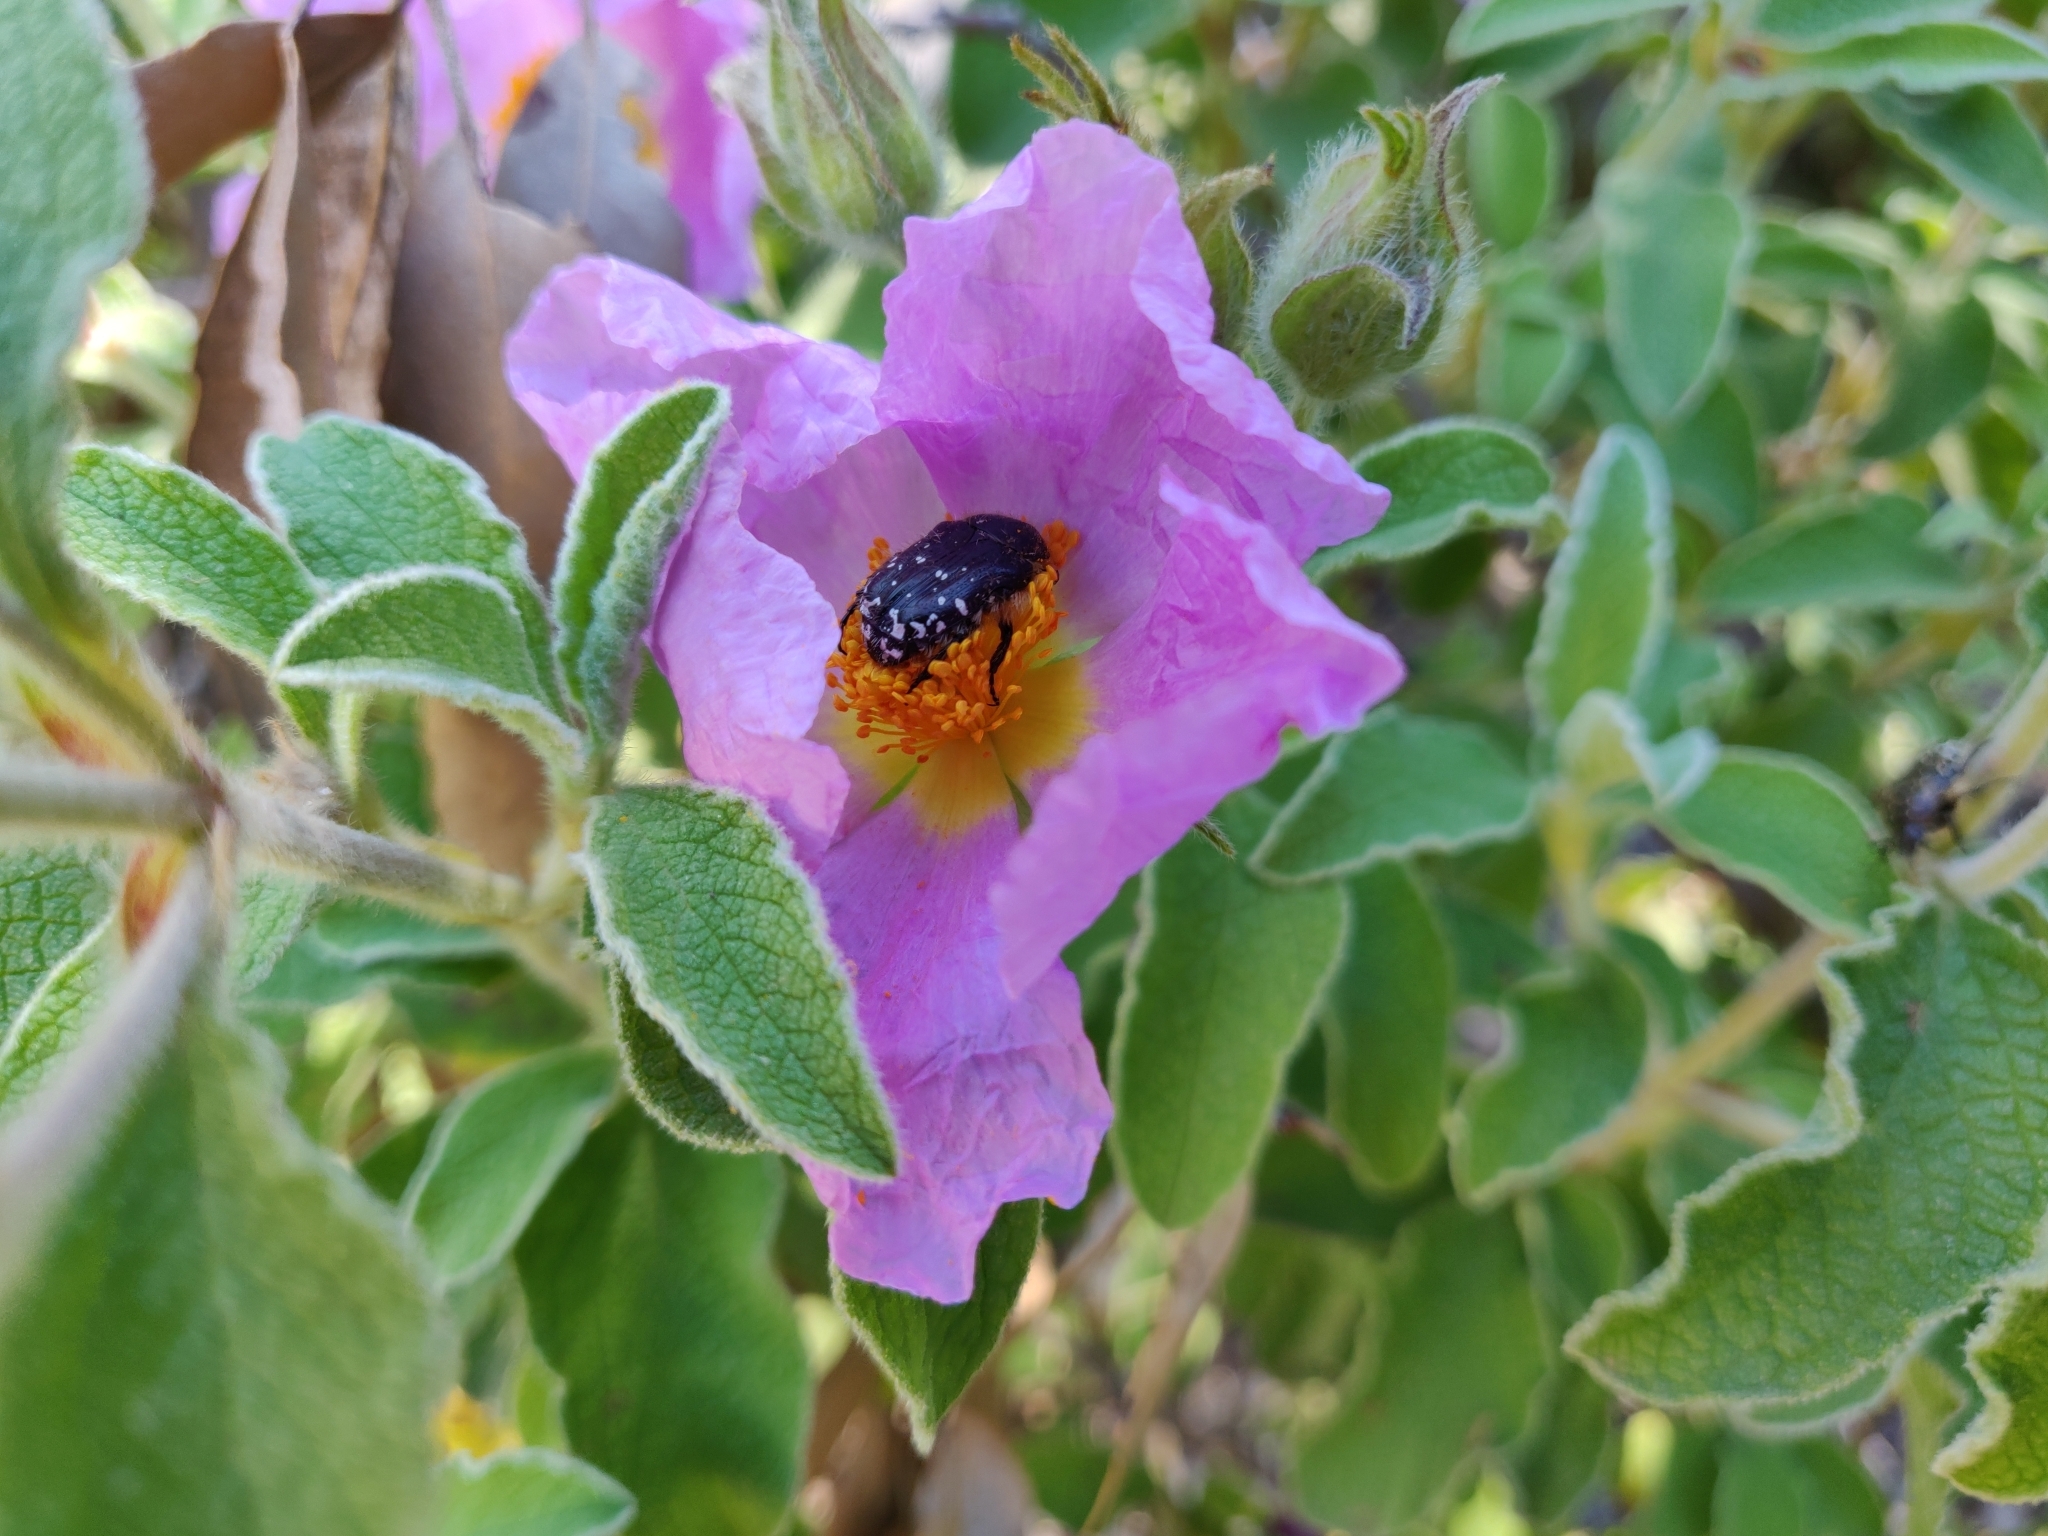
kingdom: Animalia
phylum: Arthropoda
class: Insecta
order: Coleoptera
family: Scarabaeidae
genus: Oxythyrea
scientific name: Oxythyrea funesta
